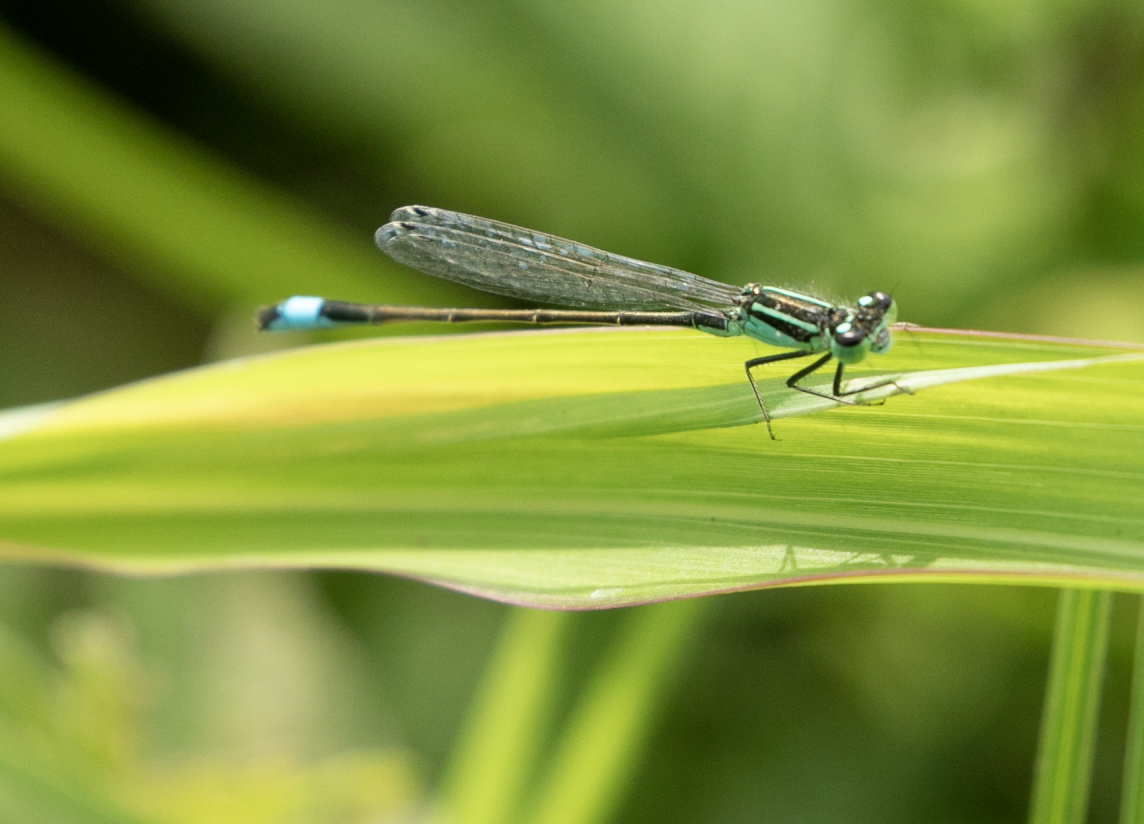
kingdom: Animalia
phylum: Arthropoda
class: Insecta
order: Odonata
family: Coenagrionidae
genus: Ischnura
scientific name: Ischnura elegans
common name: Blue-tailed damselfly
